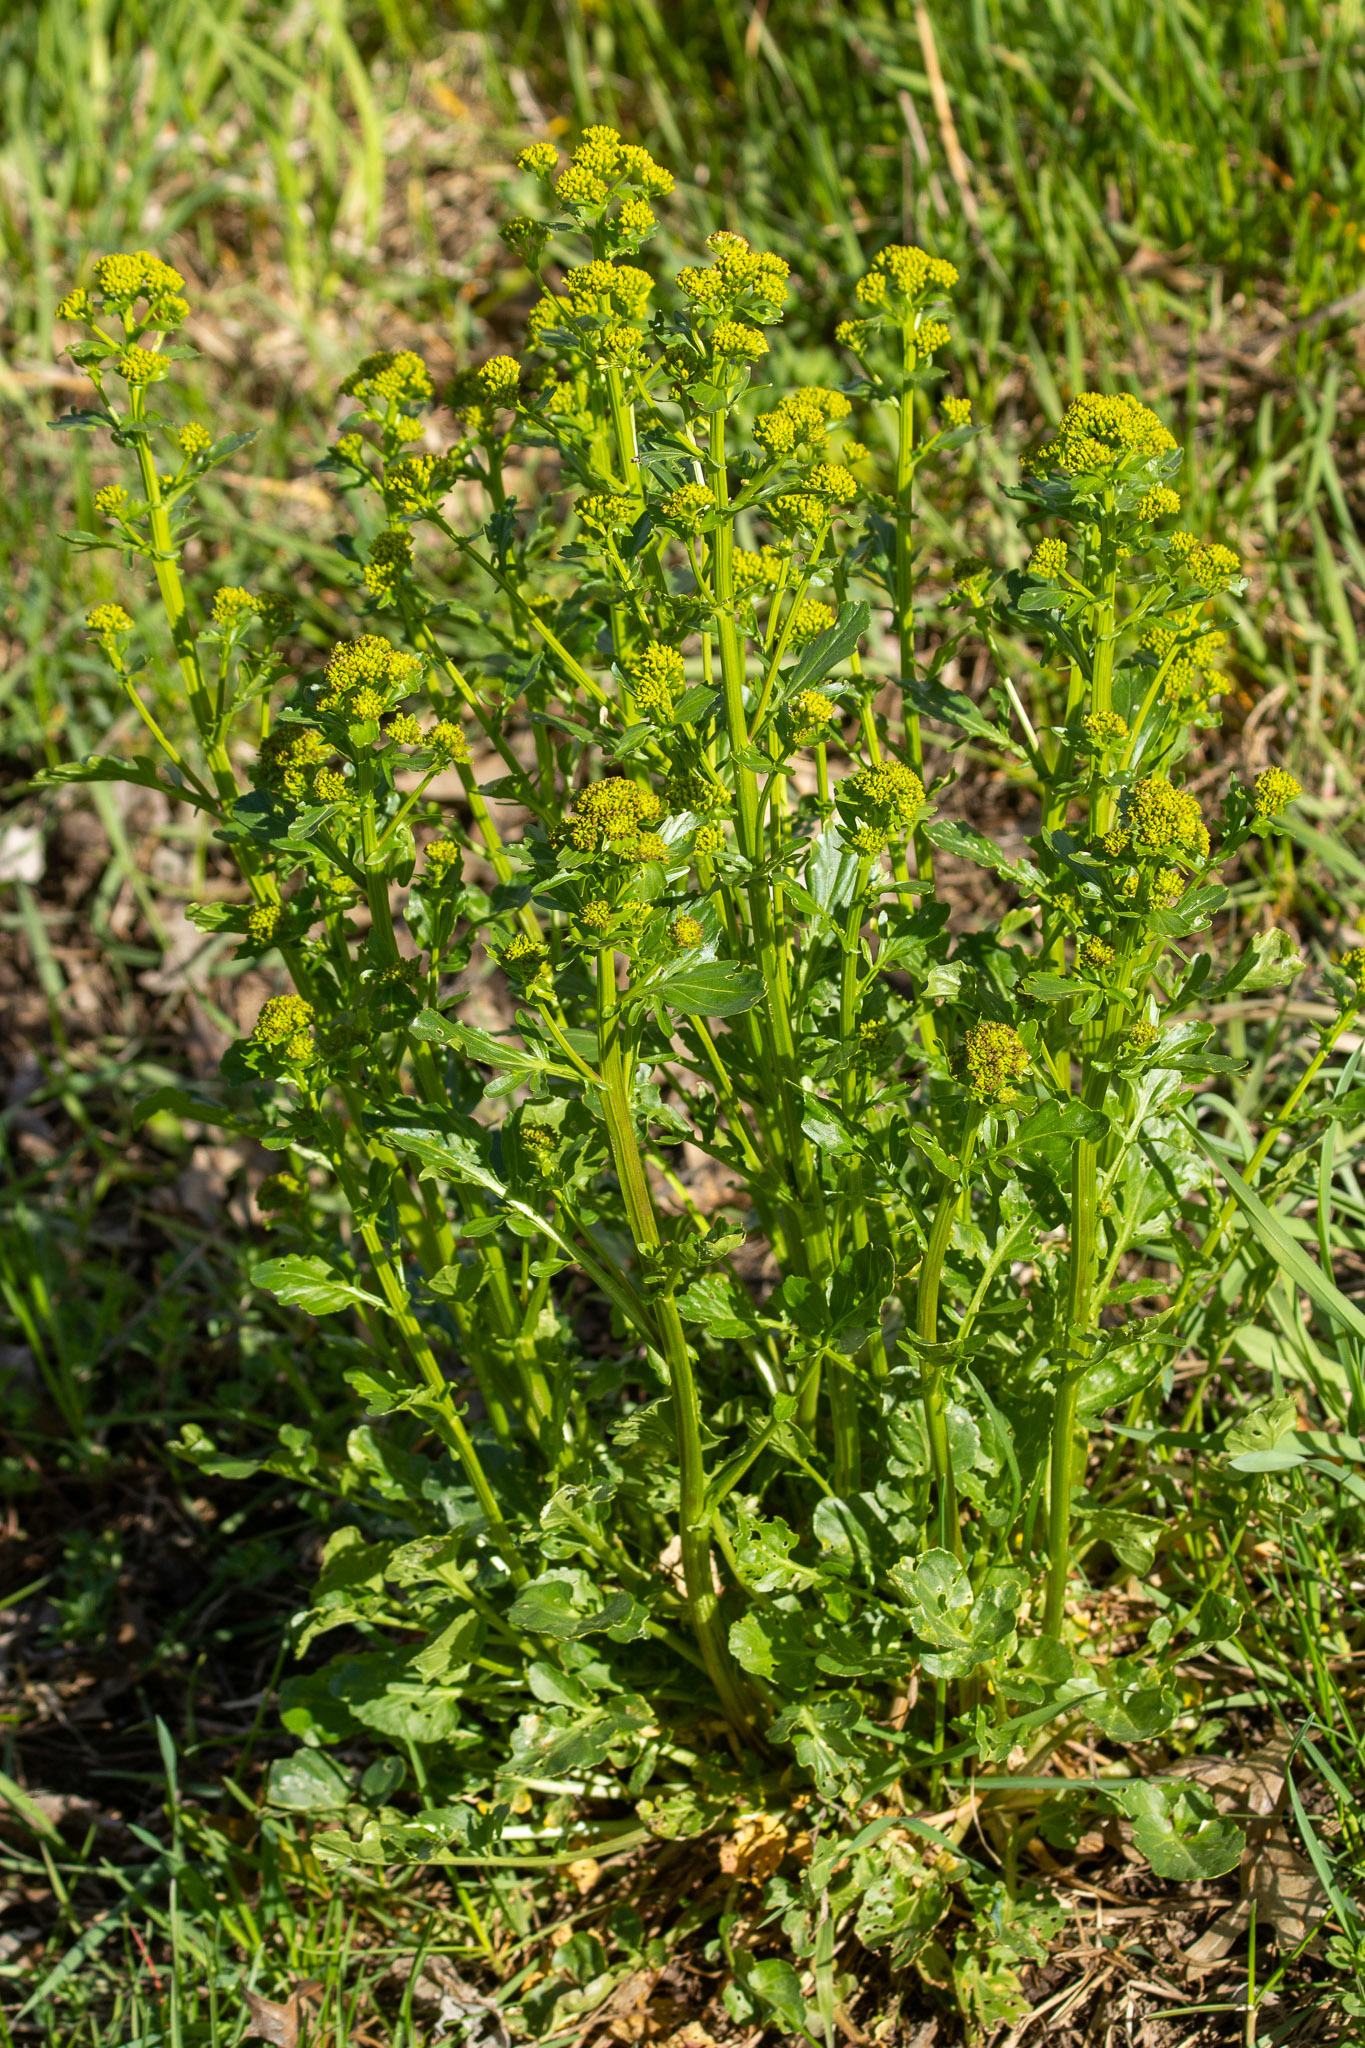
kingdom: Plantae
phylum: Tracheophyta
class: Magnoliopsida
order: Brassicales
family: Brassicaceae
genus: Barbarea
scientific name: Barbarea vulgaris
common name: Cressy-greens
